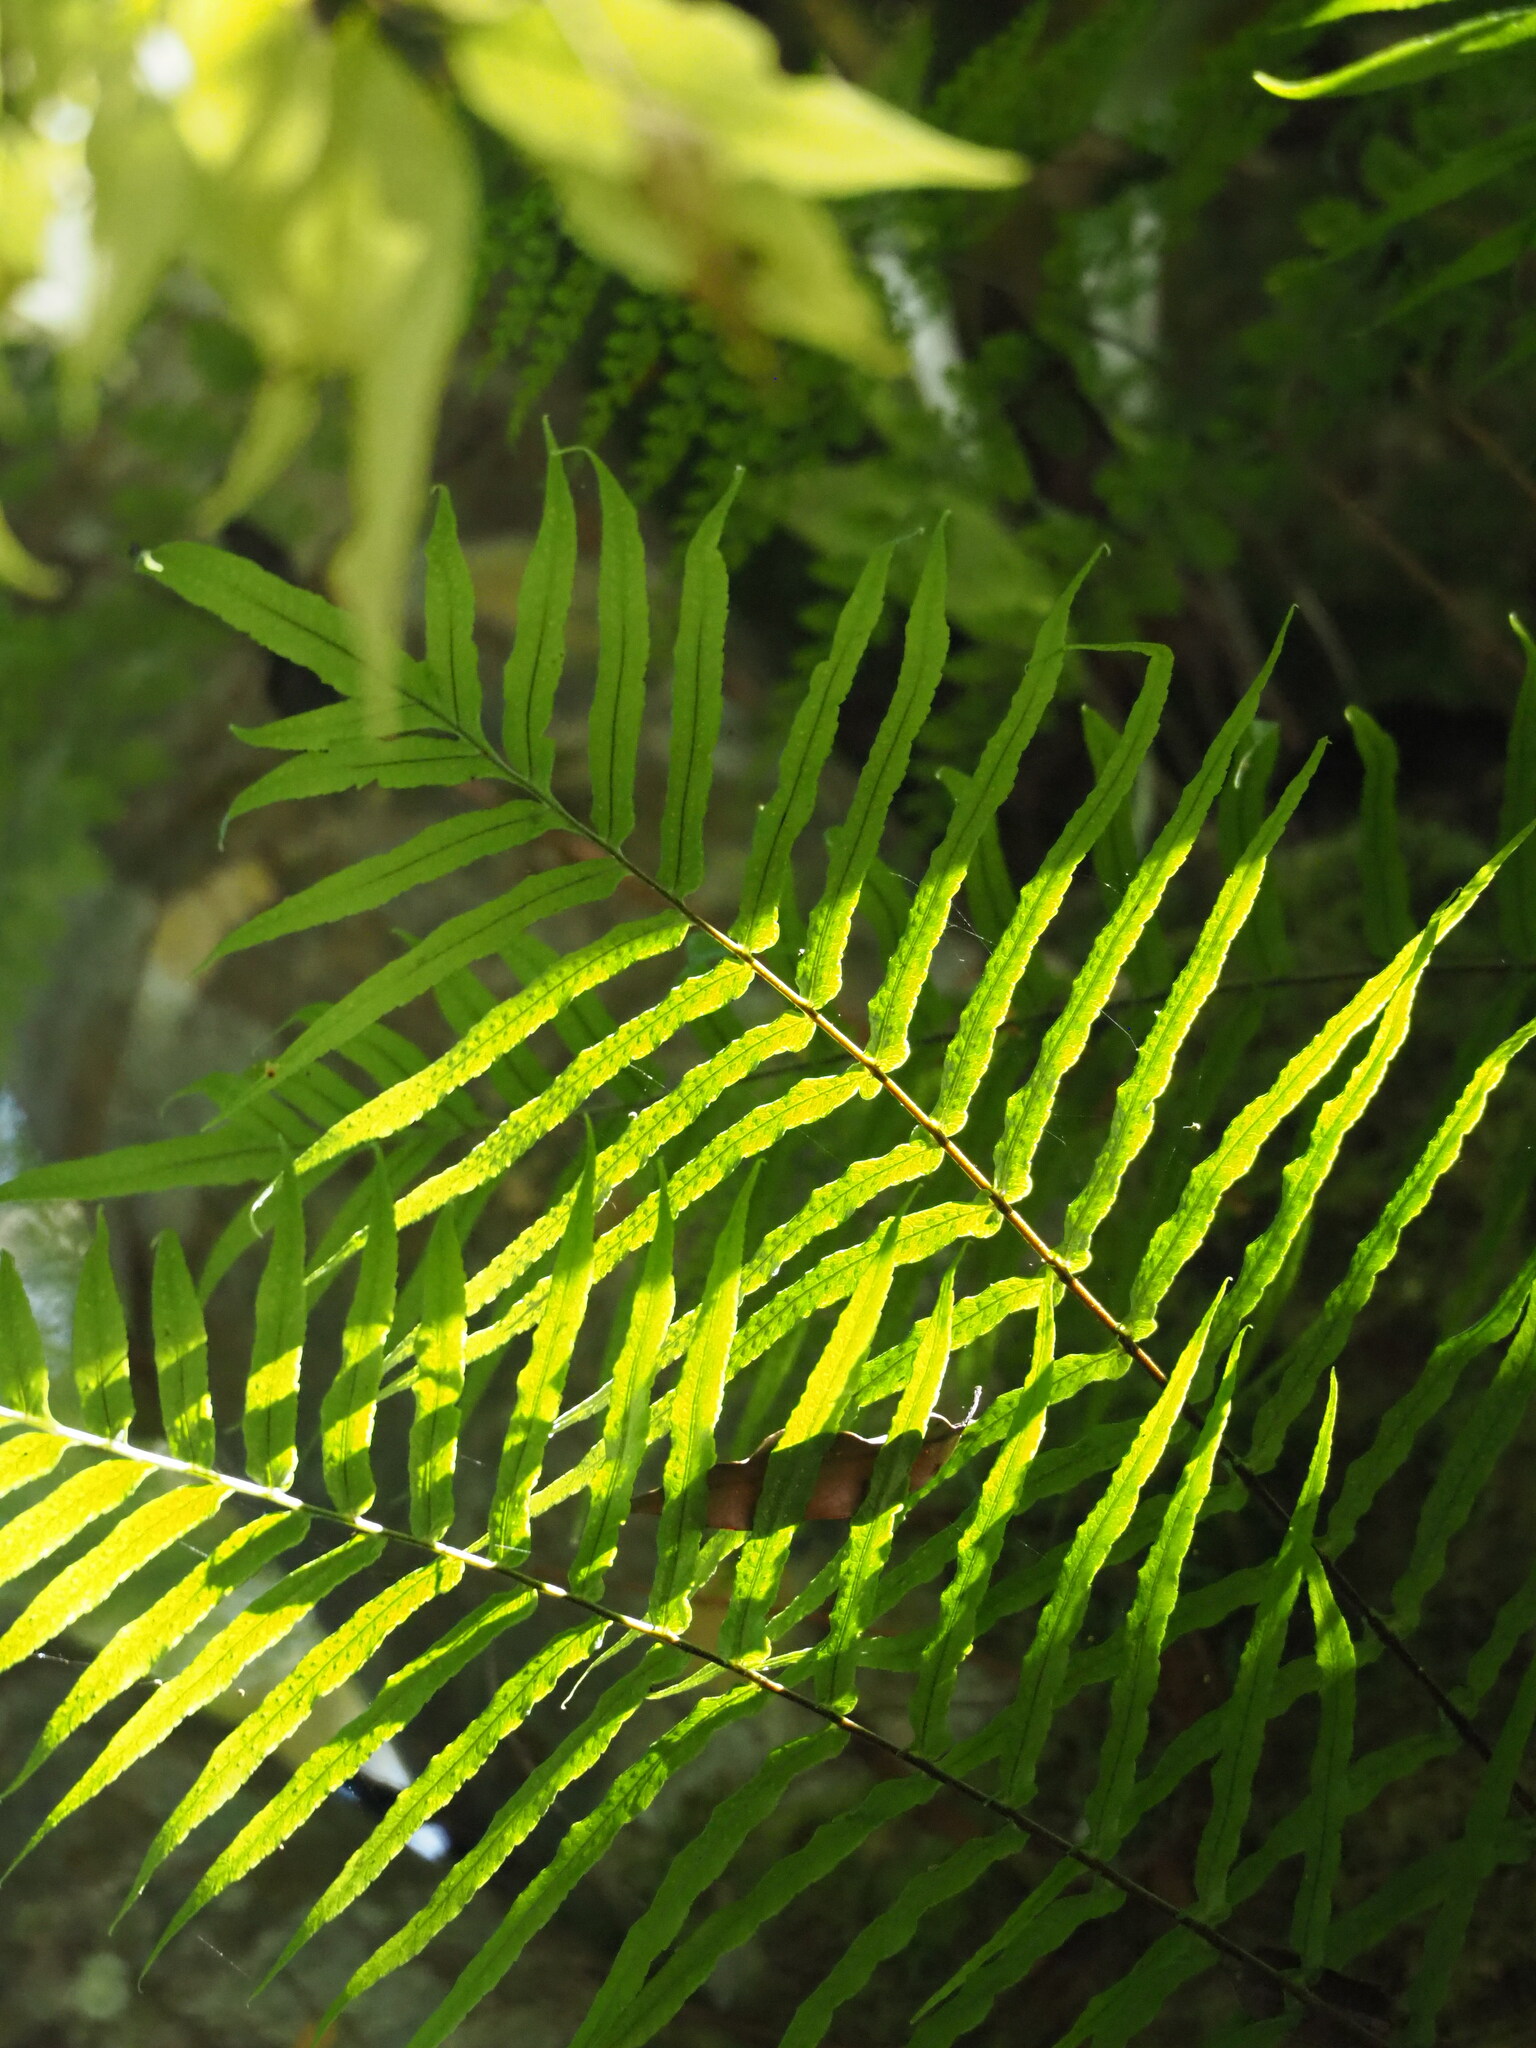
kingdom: Plantae
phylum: Tracheophyta
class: Polypodiopsida
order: Polypodiales
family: Polypodiaceae
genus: Goniophlebium
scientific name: Goniophlebium mengtzeense
